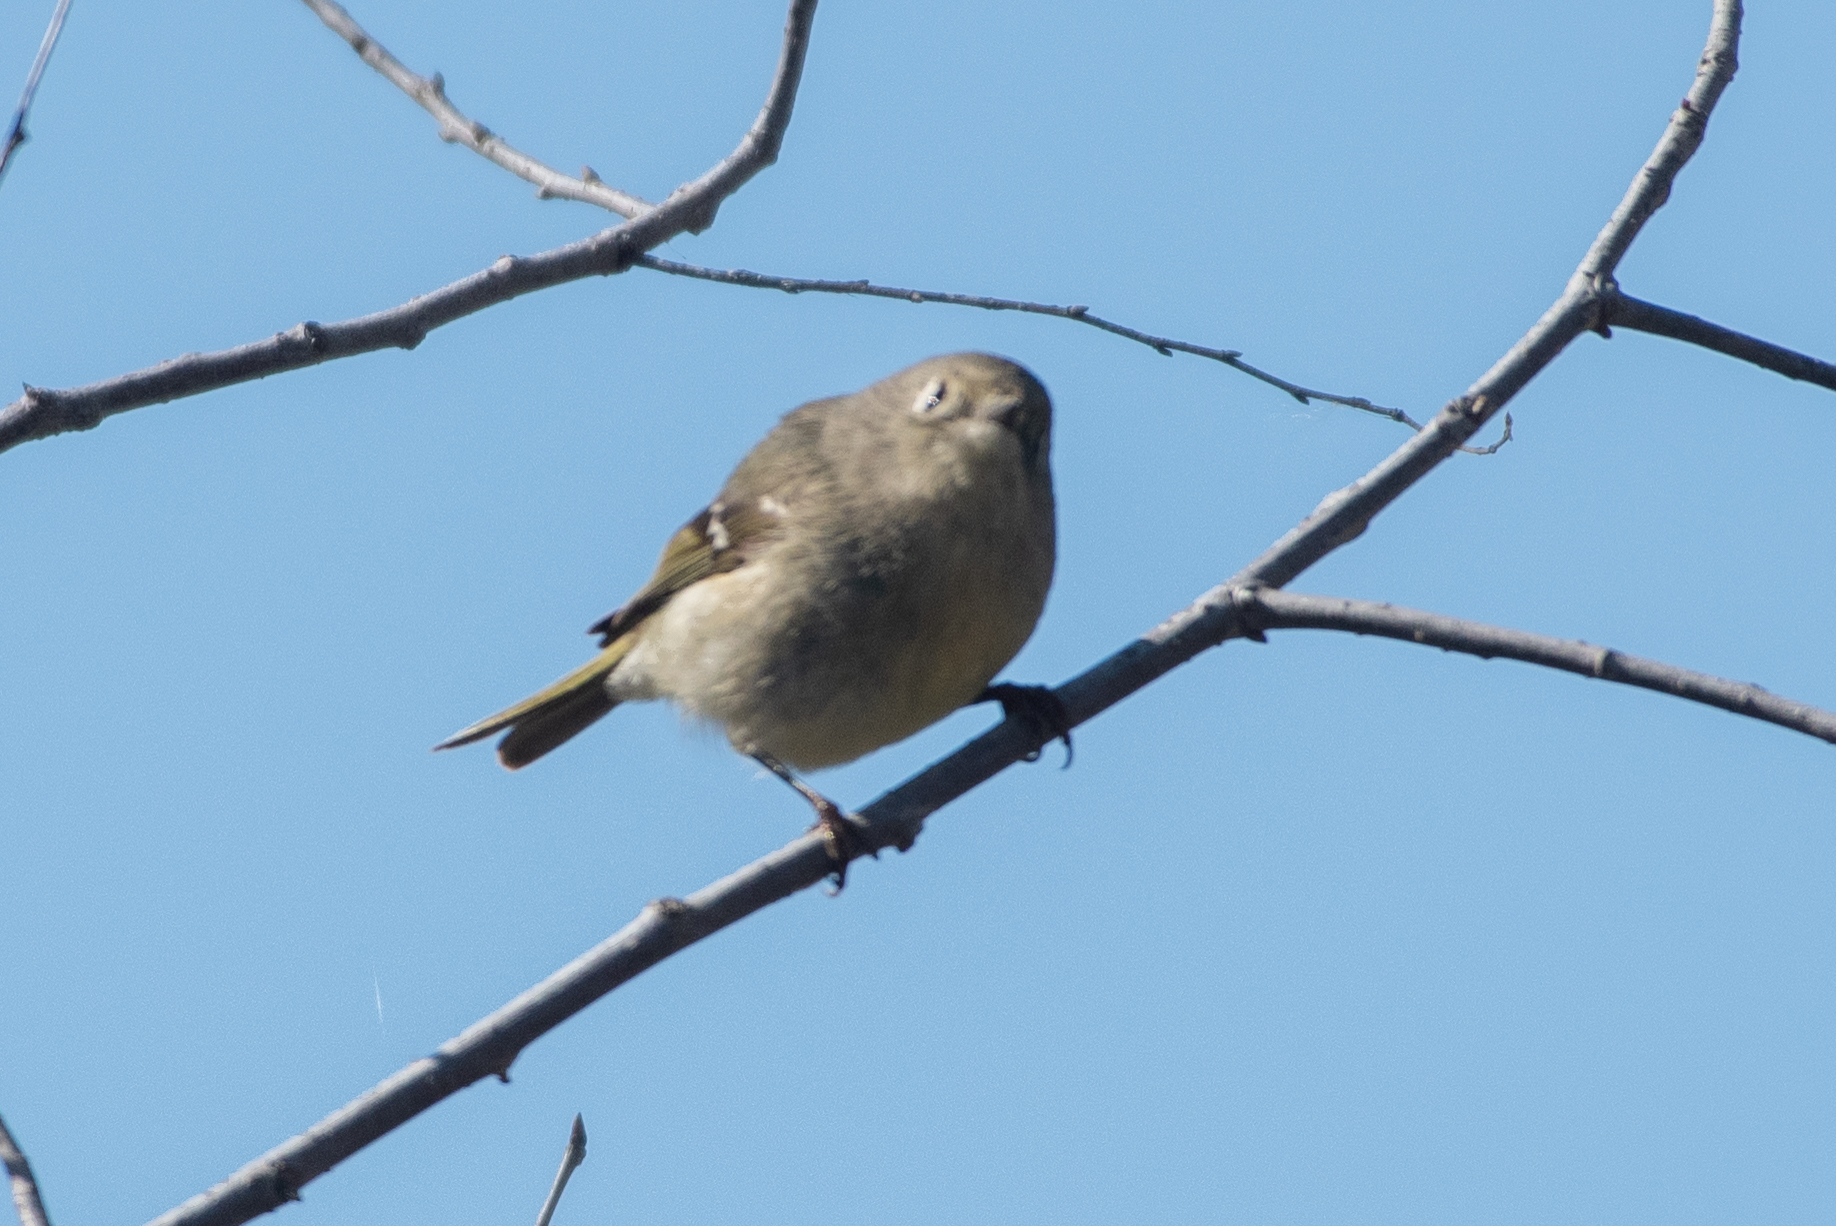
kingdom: Animalia
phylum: Chordata
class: Aves
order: Passeriformes
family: Regulidae
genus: Regulus
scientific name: Regulus calendula
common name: Ruby-crowned kinglet
